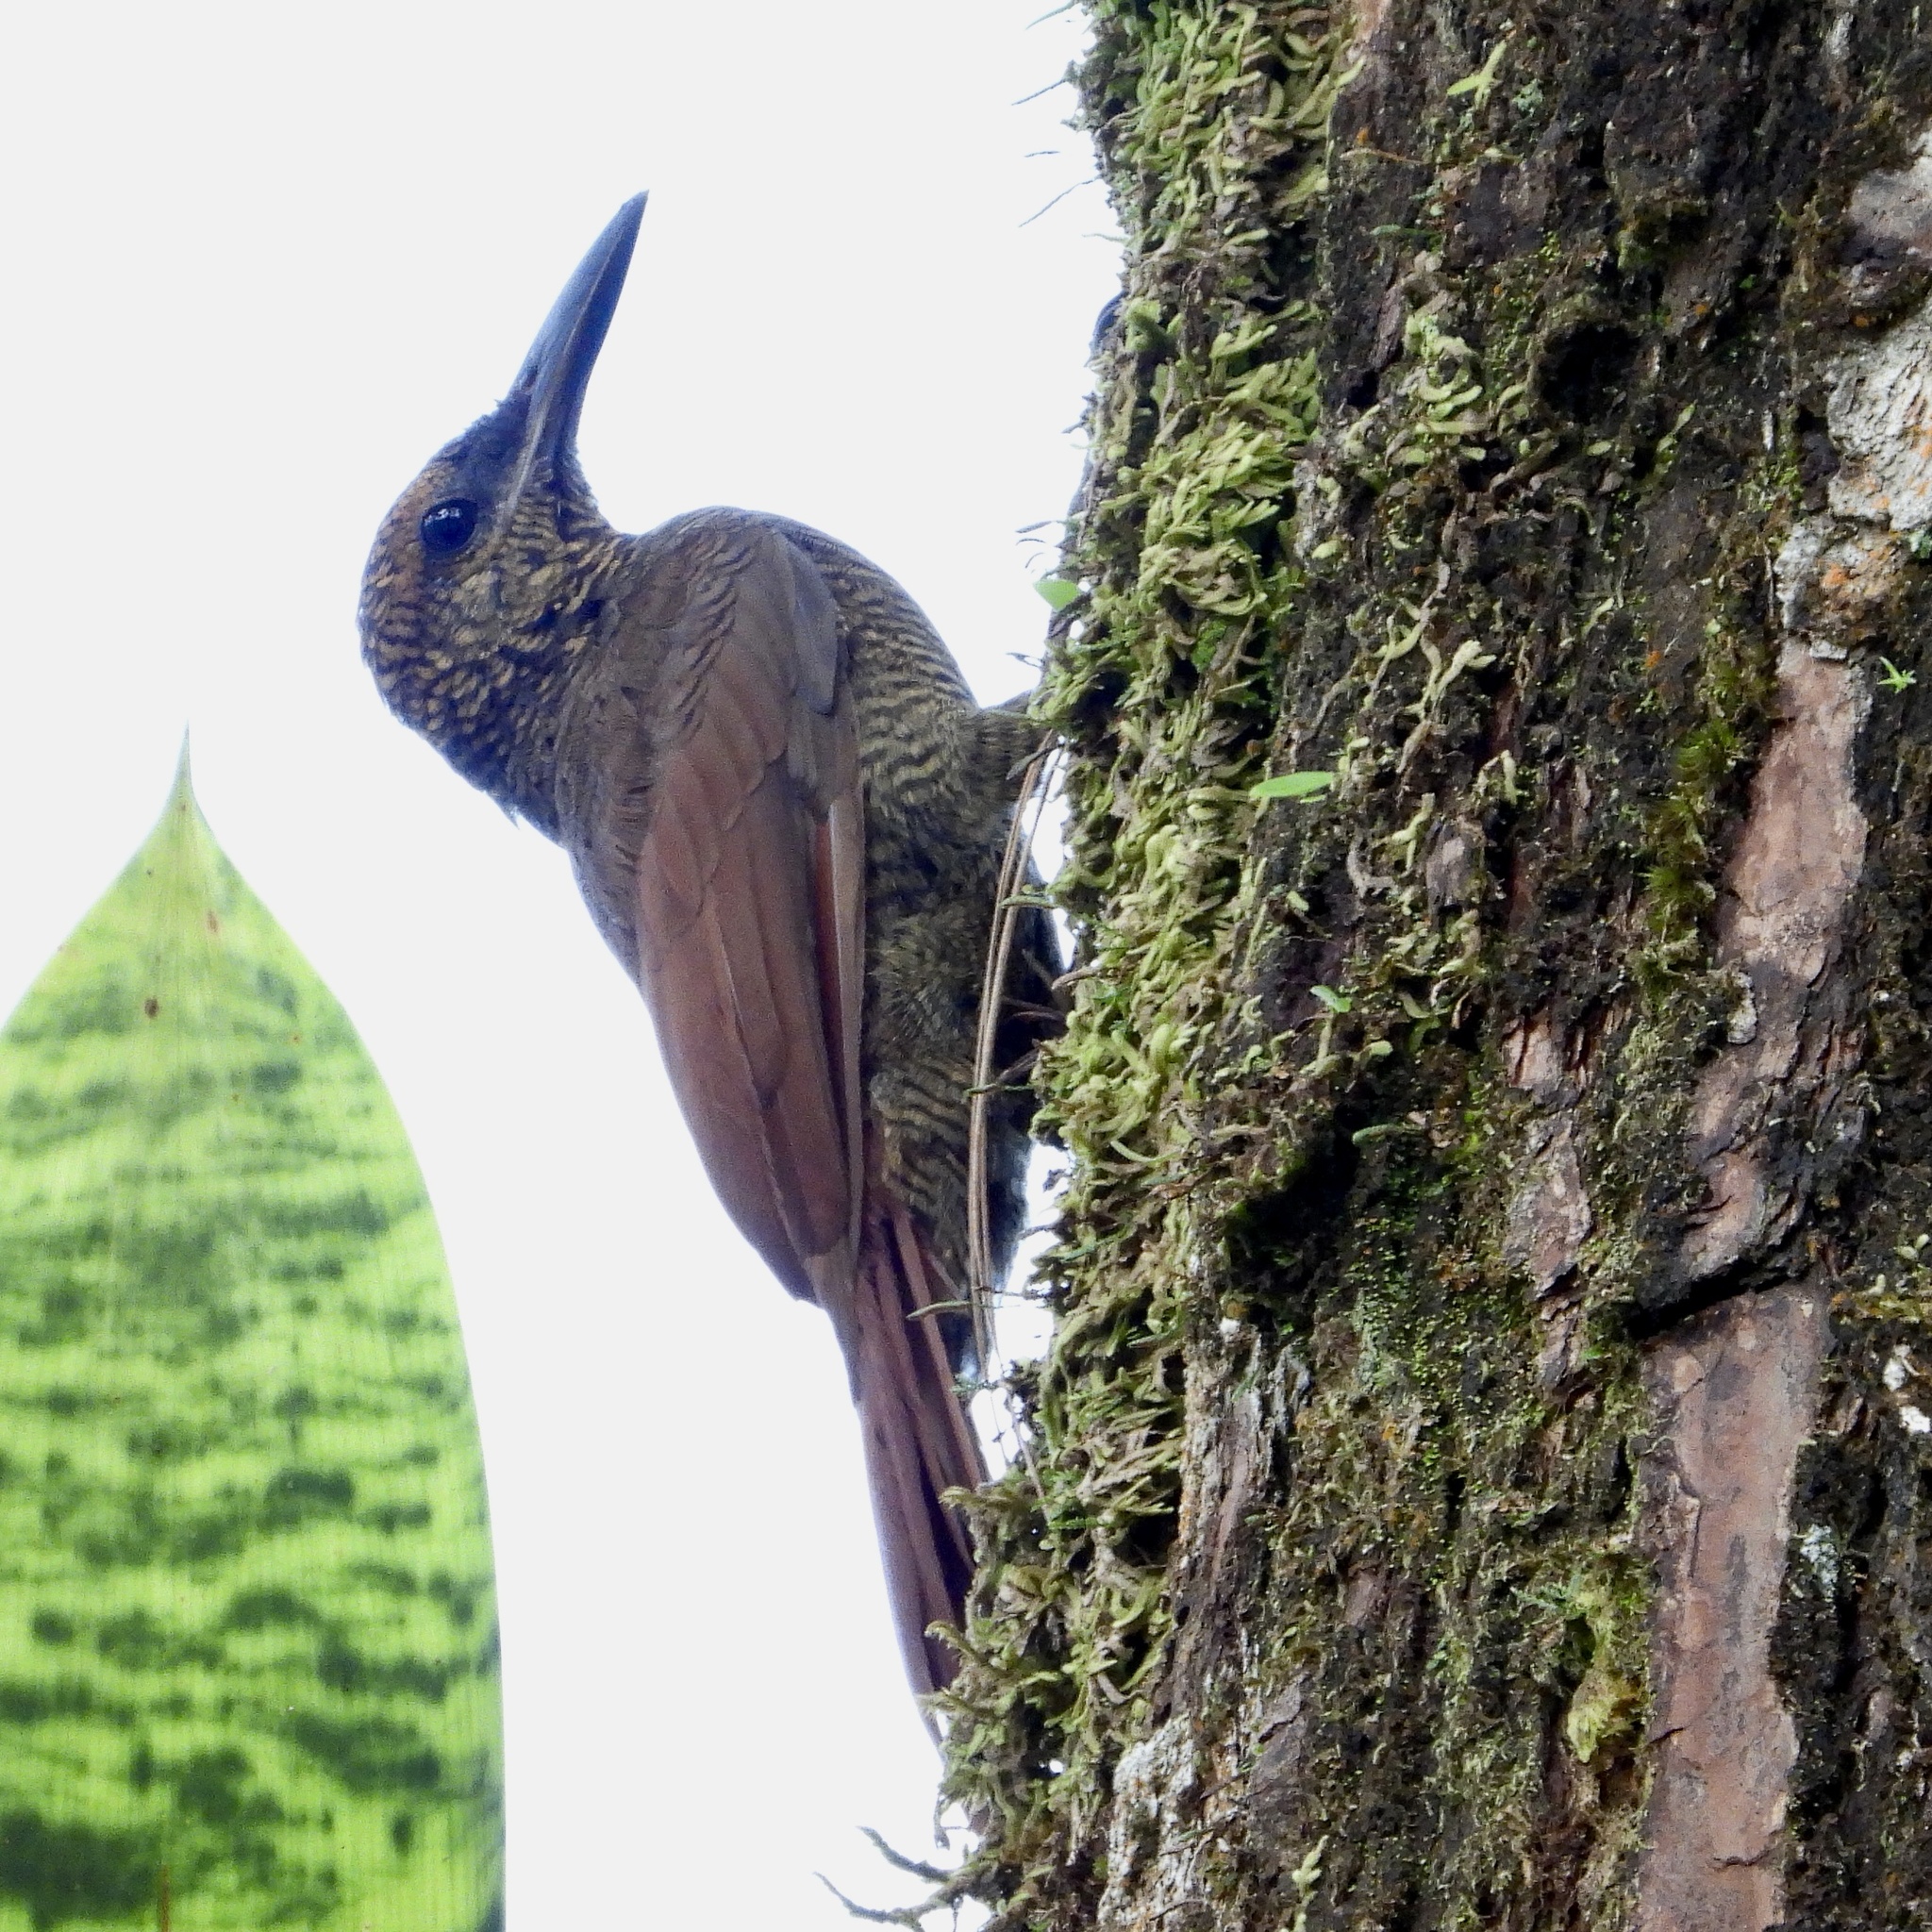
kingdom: Animalia
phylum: Chordata
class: Aves
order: Passeriformes
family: Furnariidae
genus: Dendrocolaptes
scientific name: Dendrocolaptes sanctithomae
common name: Northern barred-woodcreeper
